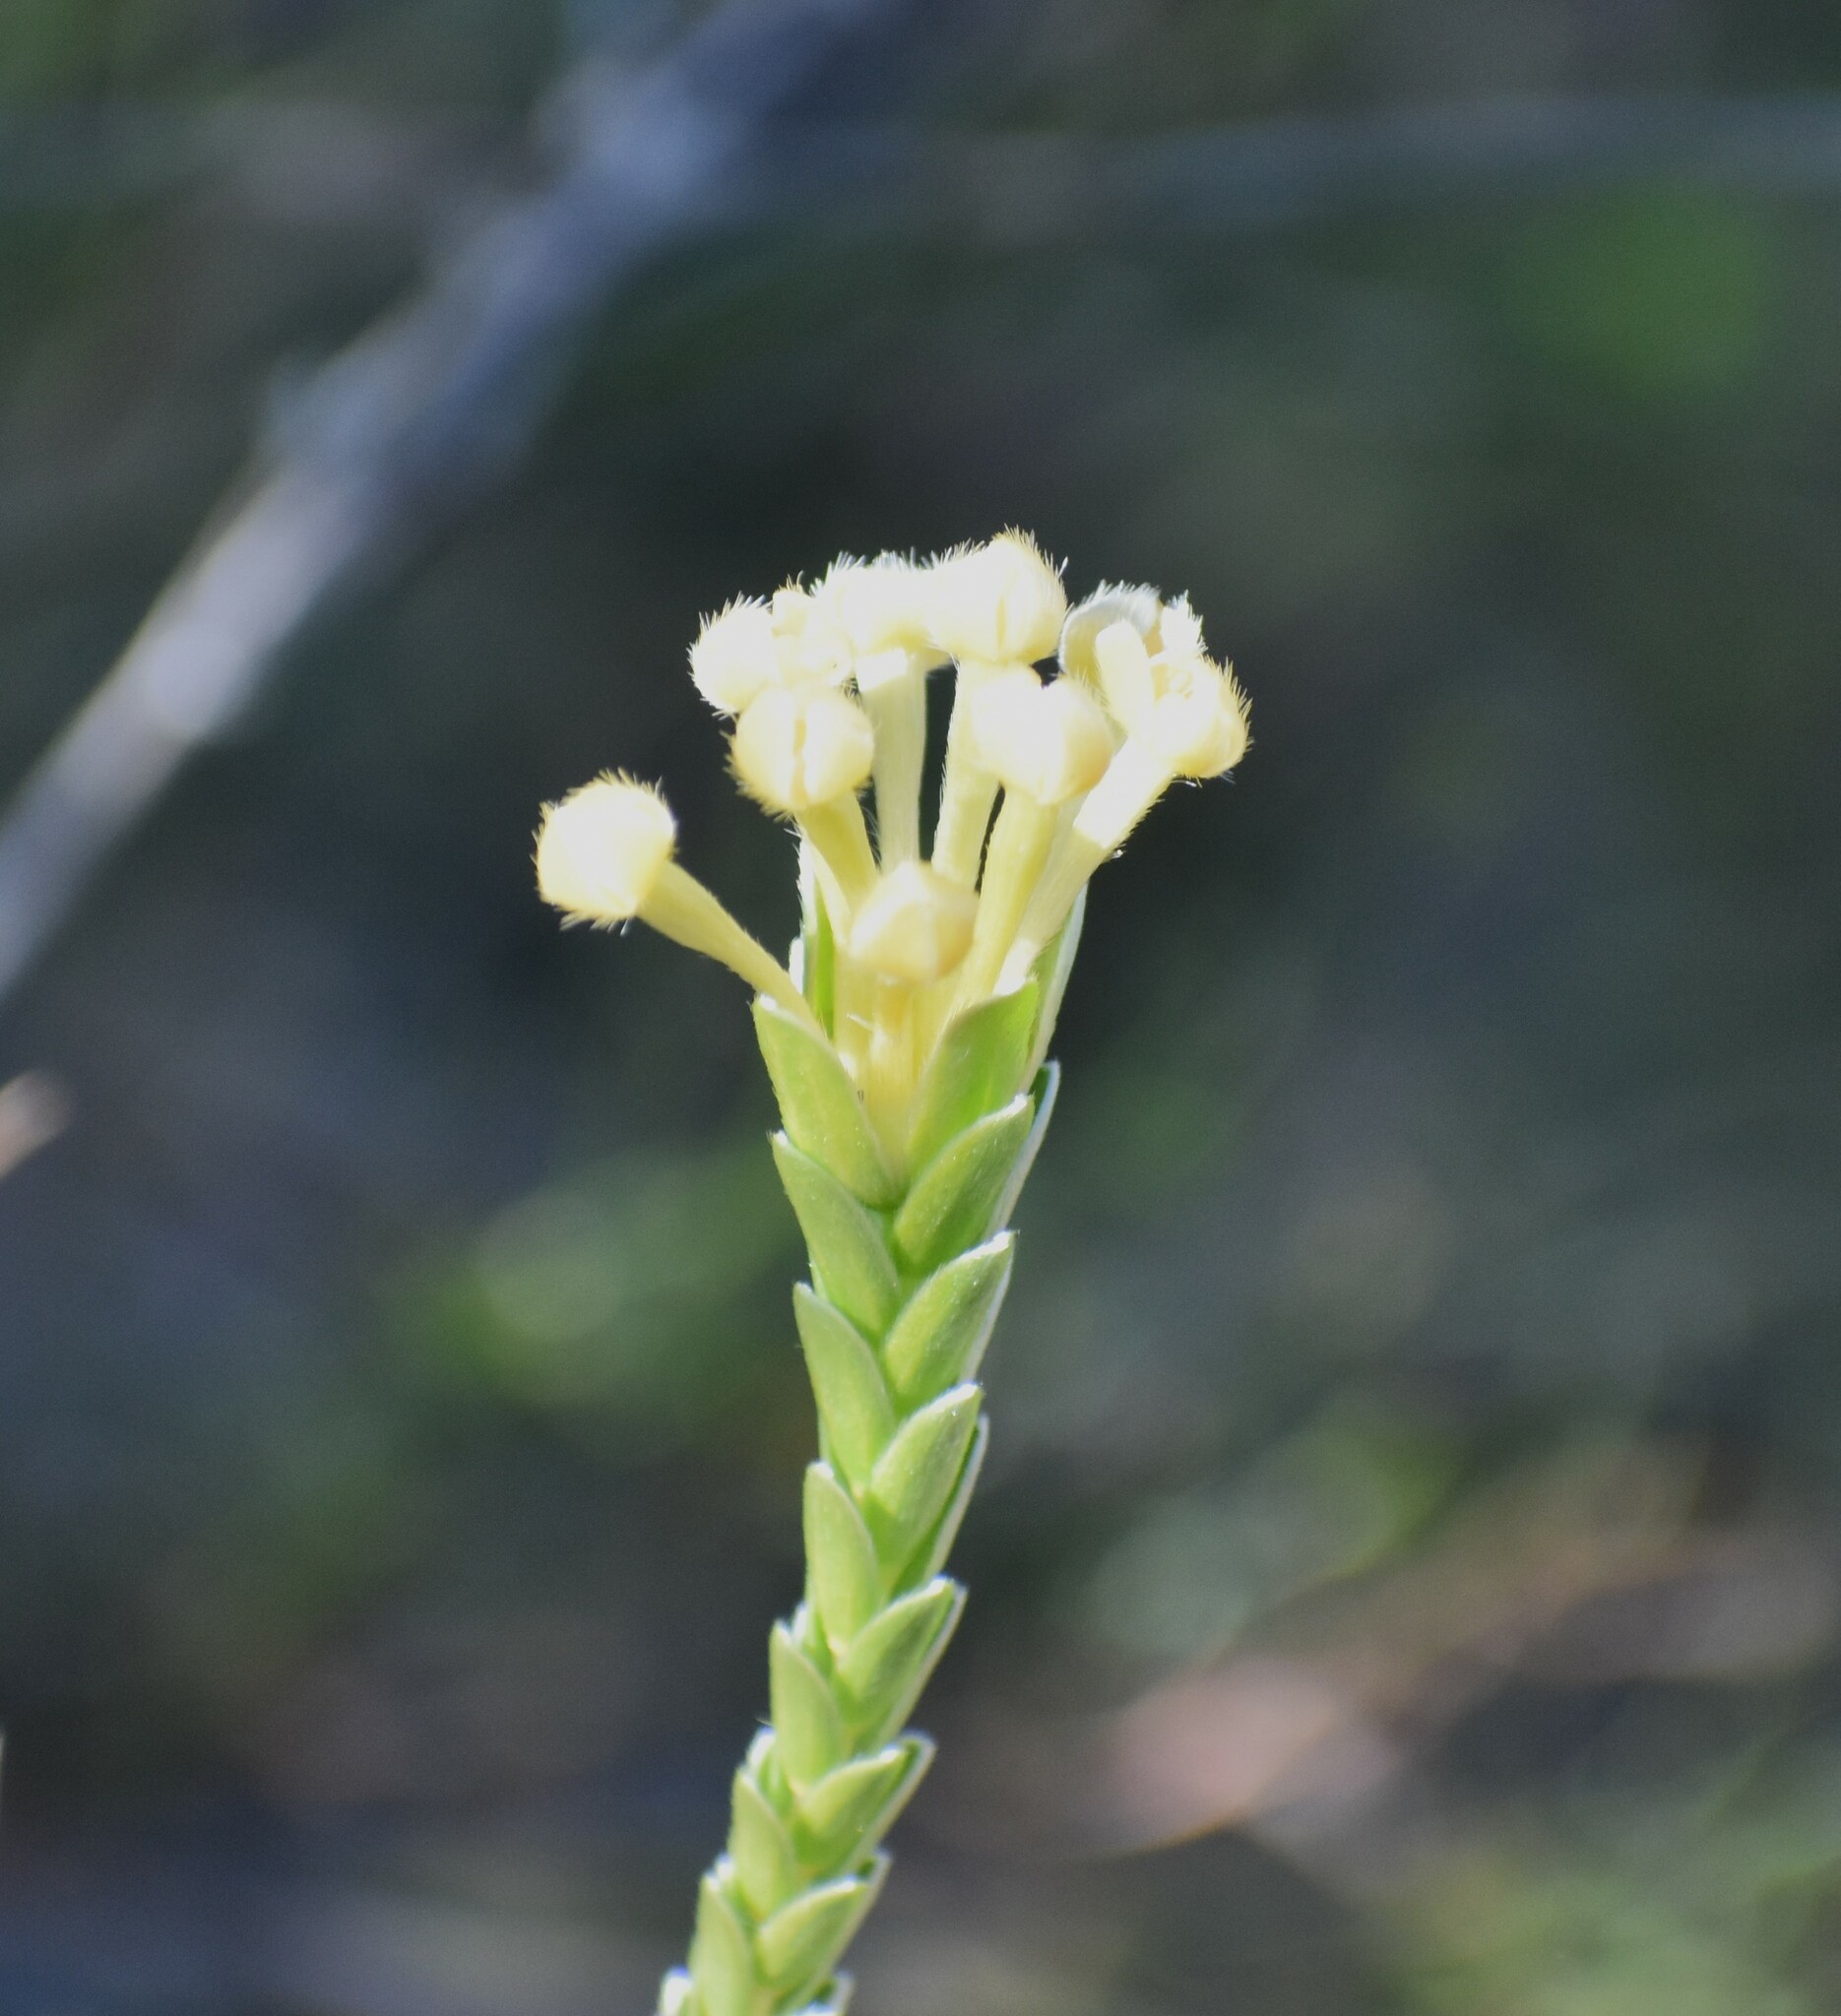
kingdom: Plantae
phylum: Tracheophyta
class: Magnoliopsida
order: Malvales
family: Thymelaeaceae
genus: Gnidia
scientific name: Gnidia chrysophylla
